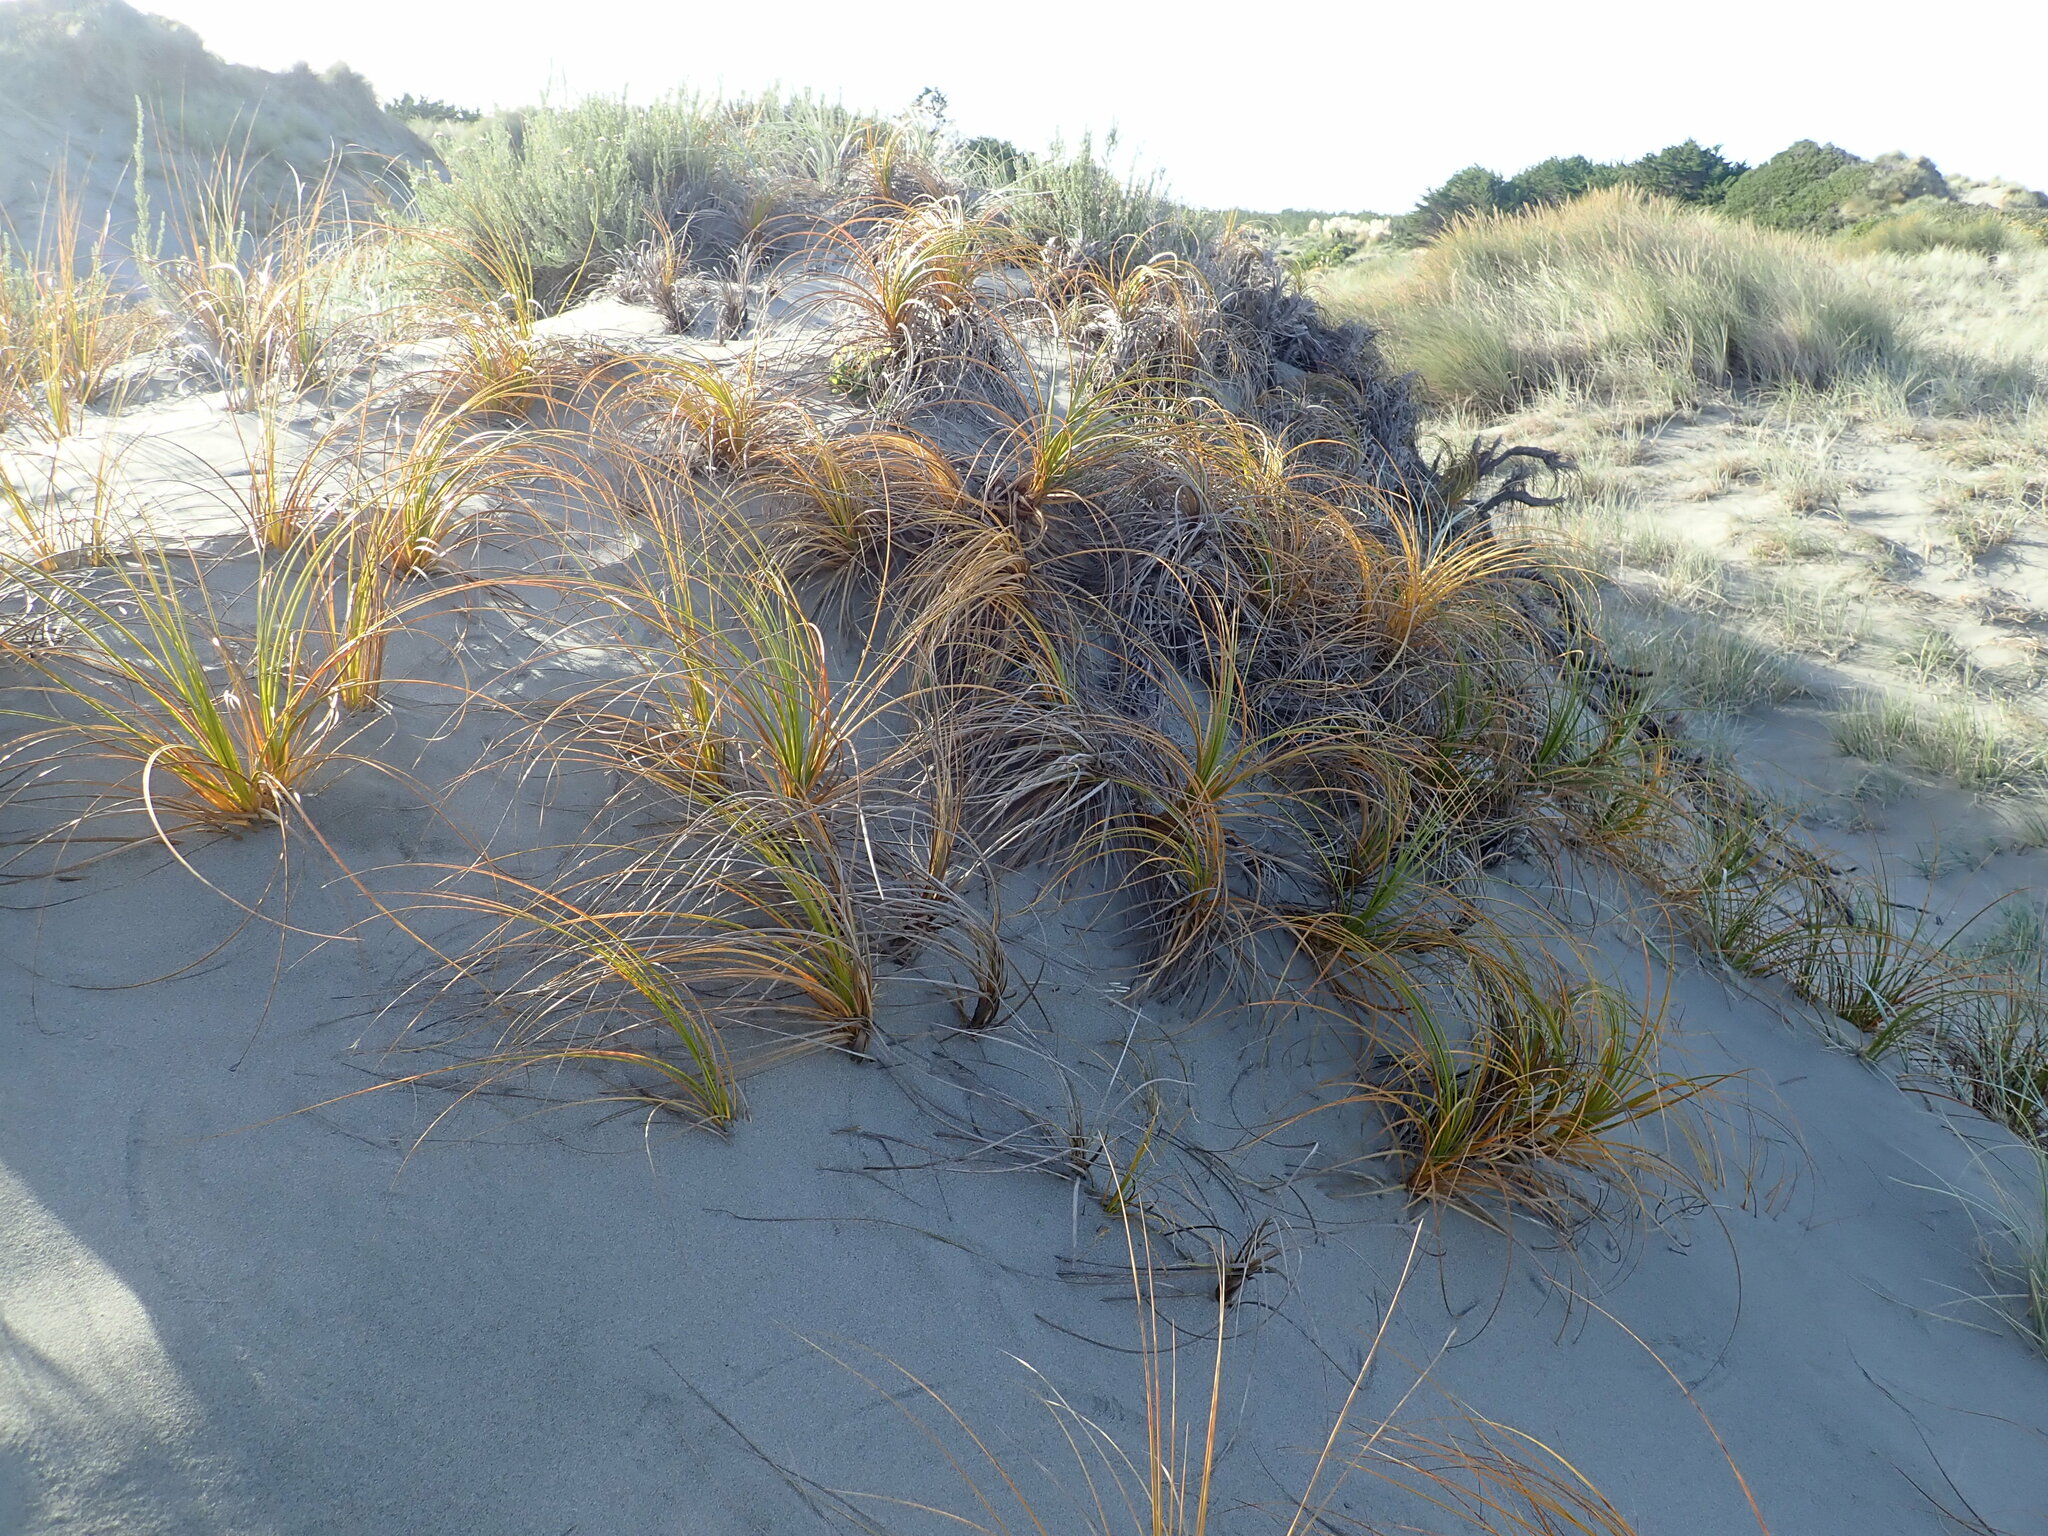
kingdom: Plantae
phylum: Tracheophyta
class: Liliopsida
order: Poales
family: Cyperaceae
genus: Ficinia
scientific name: Ficinia spiralis
